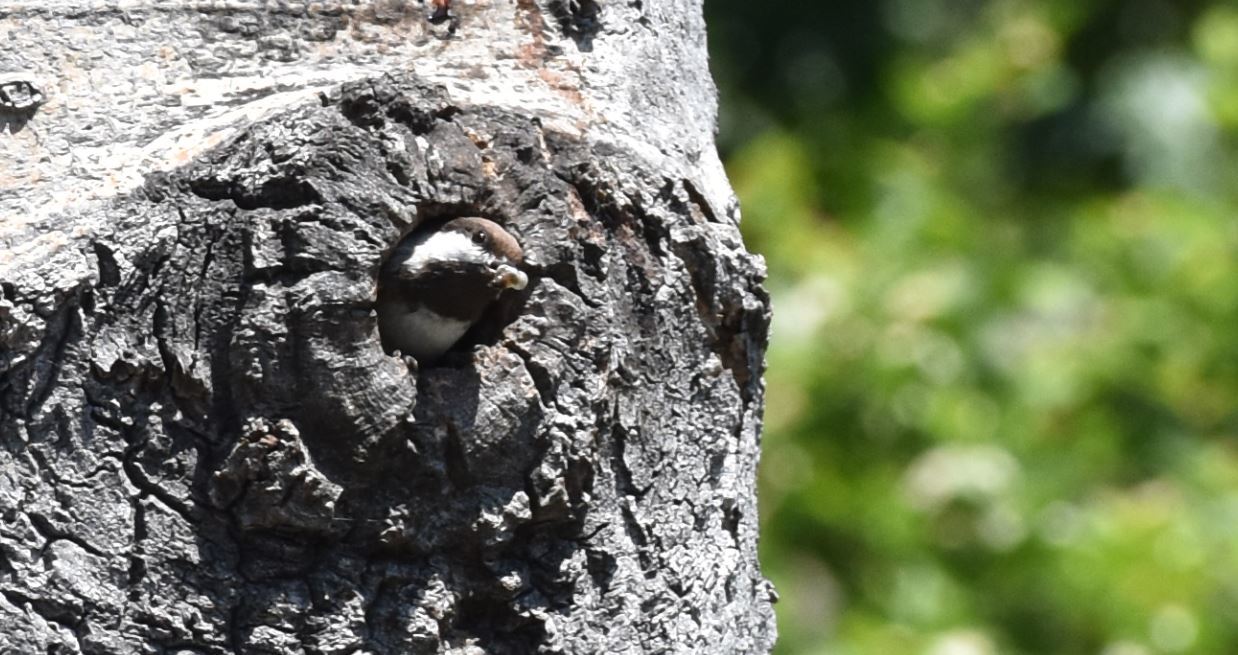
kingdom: Animalia
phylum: Chordata
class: Aves
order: Passeriformes
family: Paridae
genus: Poecile
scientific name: Poecile rufescens
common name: Chestnut-backed chickadee
